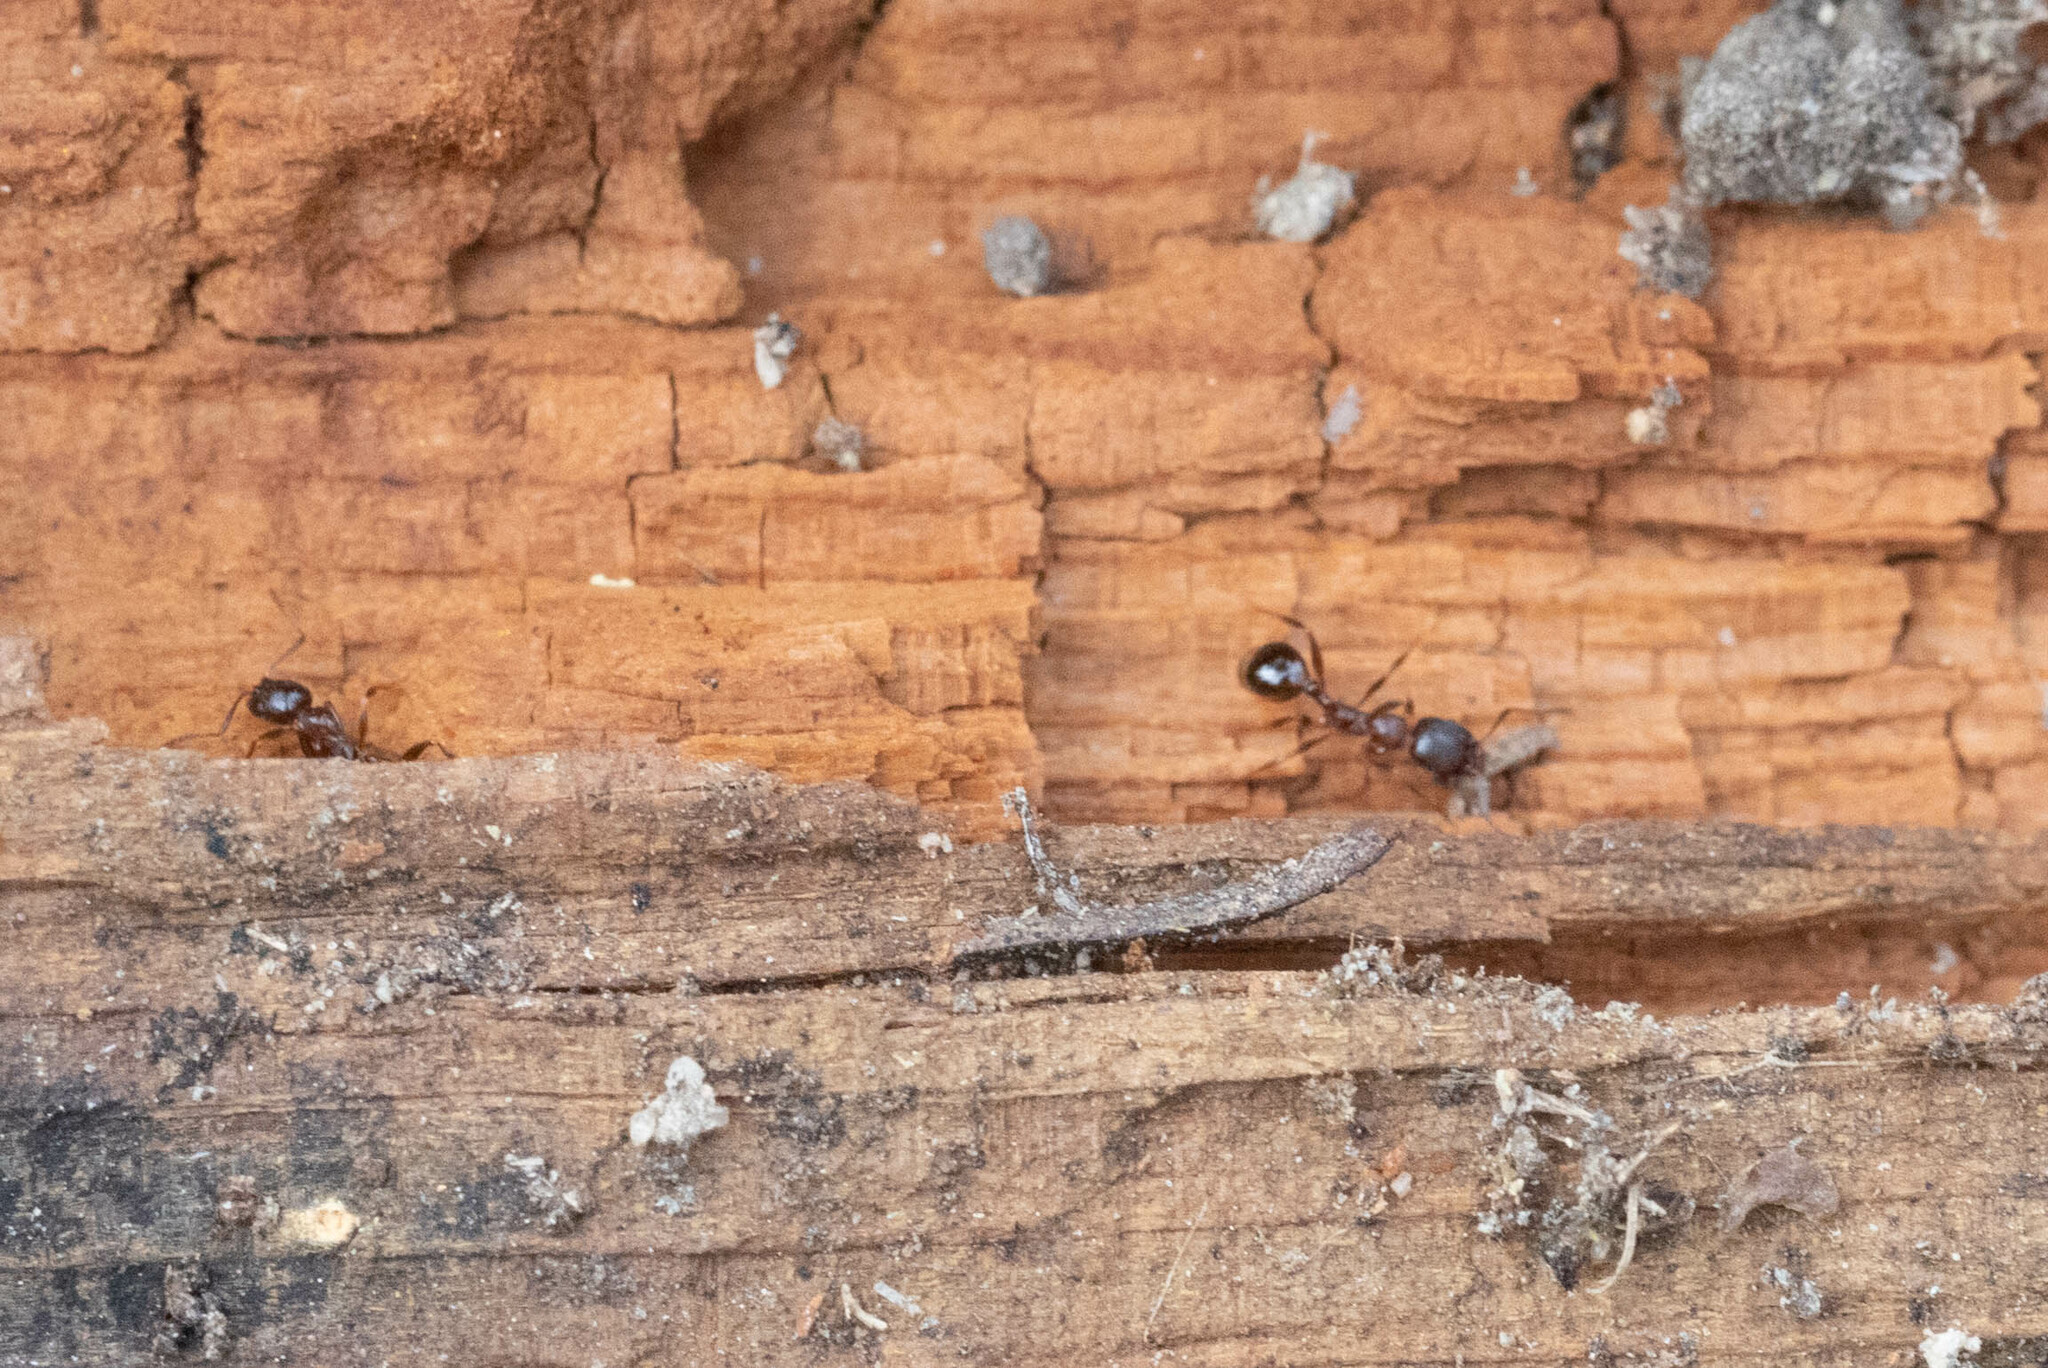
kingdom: Animalia
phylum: Arthropoda
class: Insecta
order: Hymenoptera
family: Formicidae
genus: Aphaenogaster
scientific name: Aphaenogaster occidentalis
